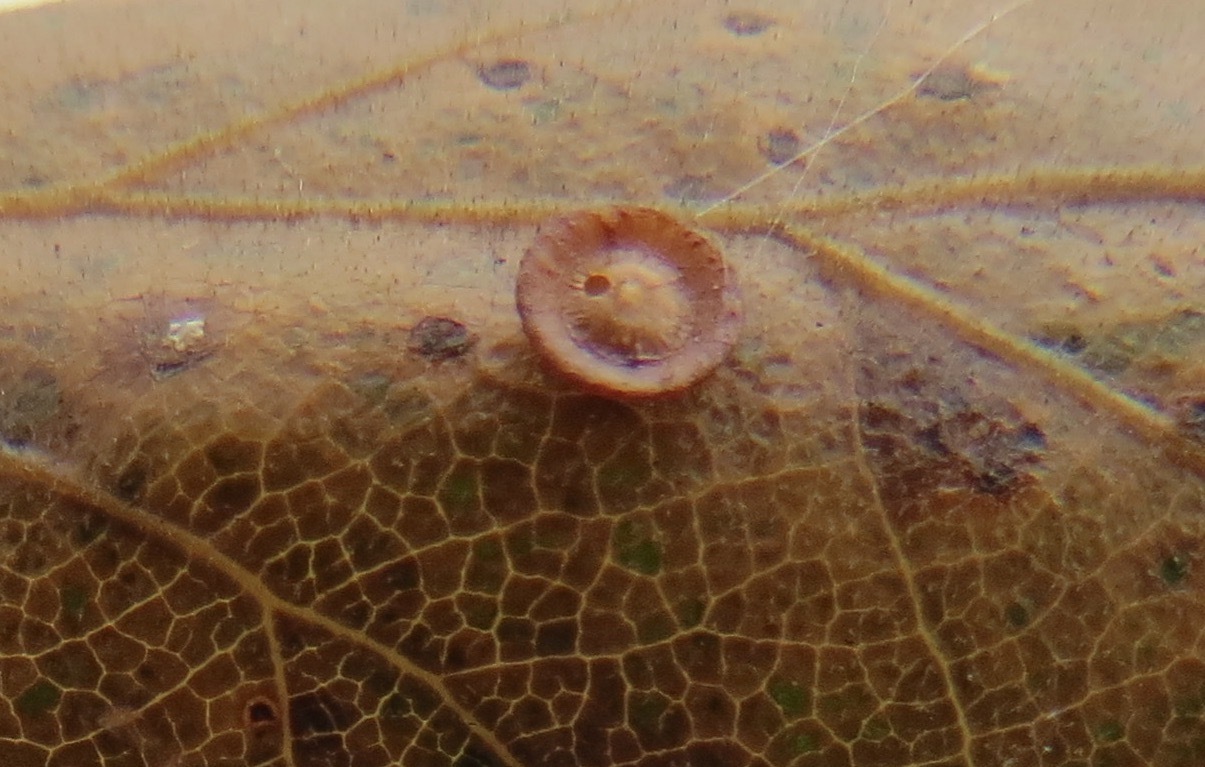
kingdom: Animalia
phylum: Arthropoda
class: Insecta
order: Hymenoptera
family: Cynipidae
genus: Andricus
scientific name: Andricus
